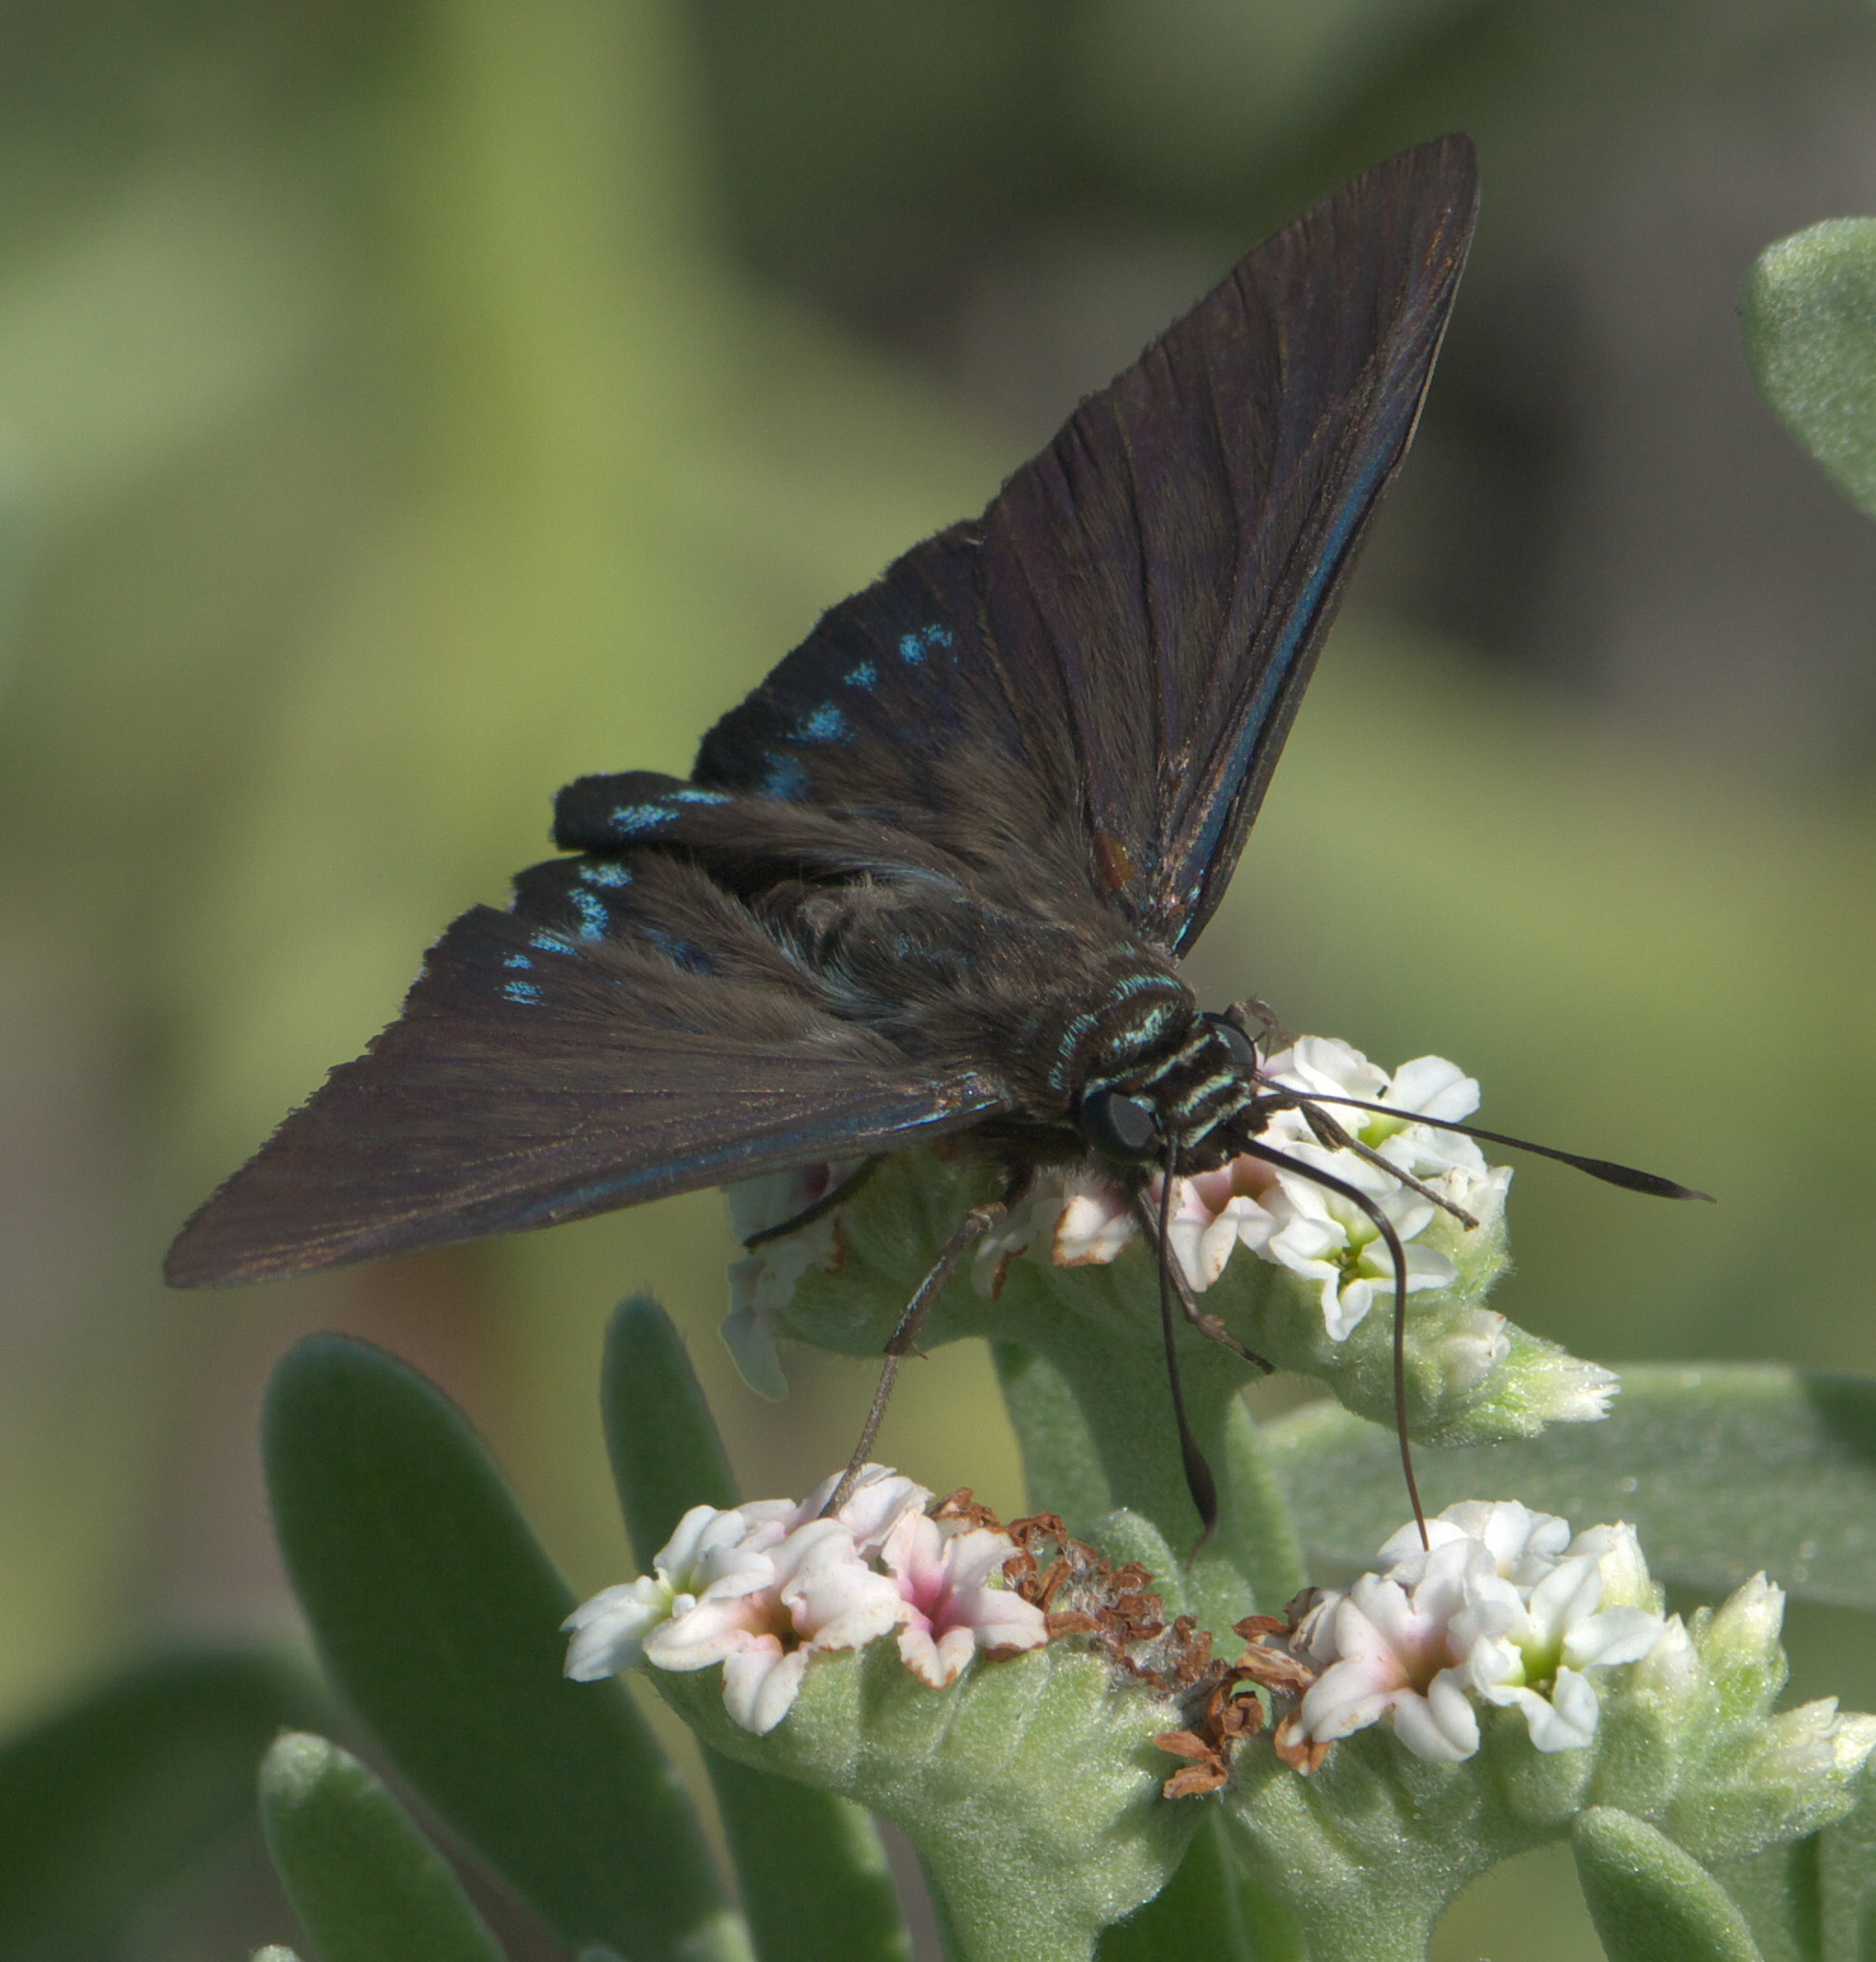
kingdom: Animalia
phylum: Arthropoda
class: Insecta
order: Lepidoptera
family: Hesperiidae
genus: Phocides
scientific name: Phocides pigmalion
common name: Mangrove skipper
